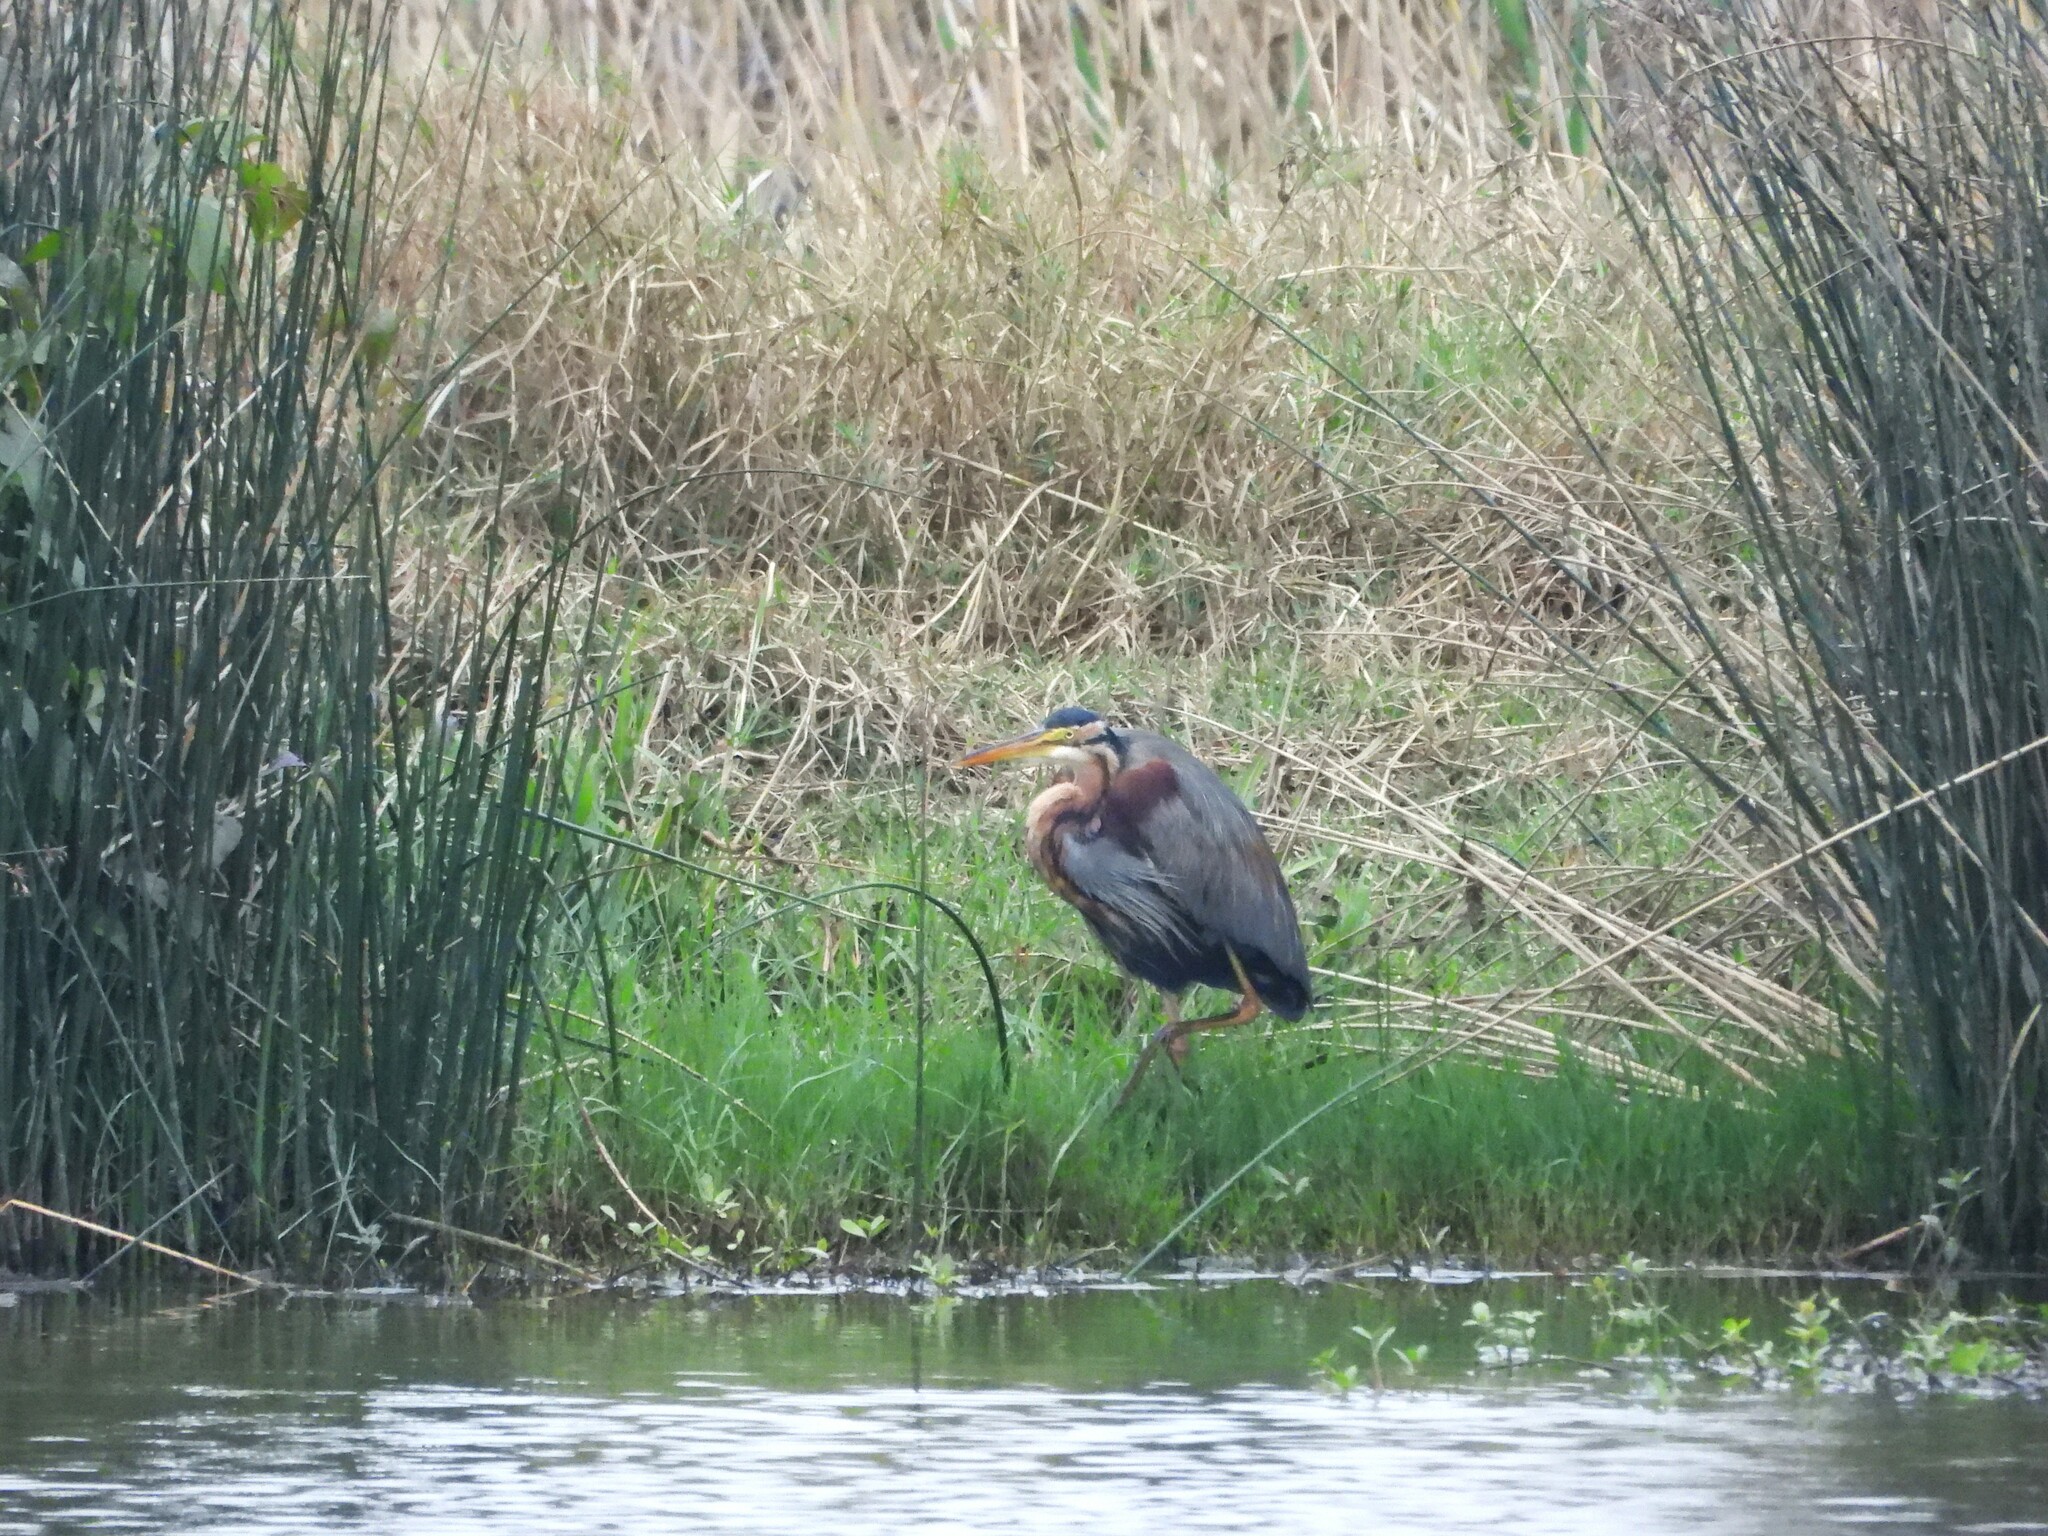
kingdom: Animalia
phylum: Chordata
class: Aves
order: Pelecaniformes
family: Ardeidae
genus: Ardea
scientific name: Ardea purpurea
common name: Purple heron
